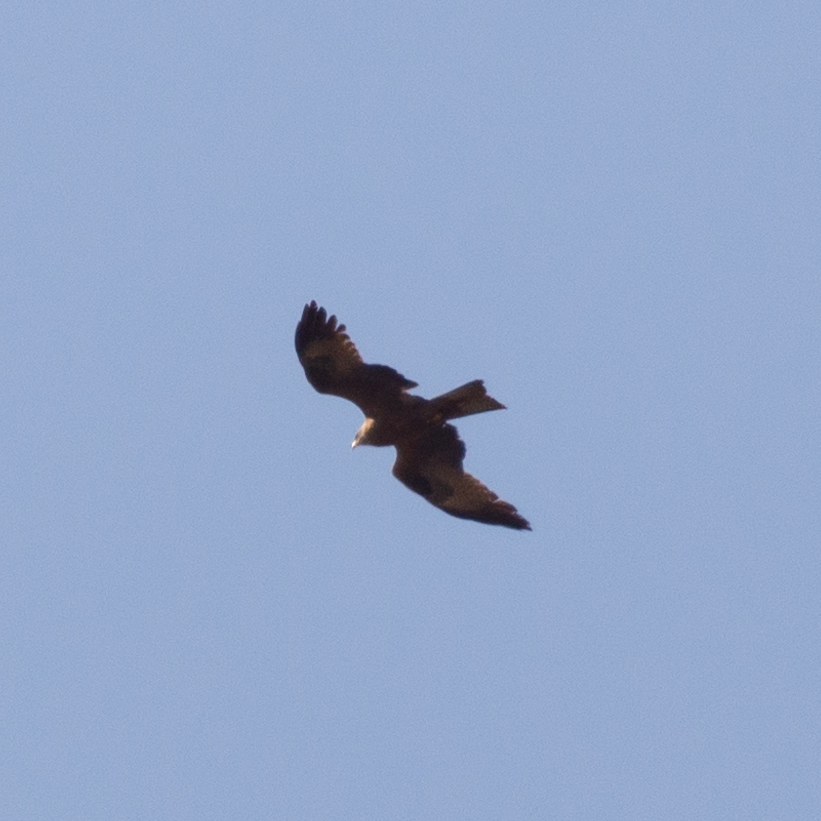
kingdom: Animalia
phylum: Chordata
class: Aves
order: Accipitriformes
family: Accipitridae
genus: Milvus
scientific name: Milvus migrans
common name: Black kite
